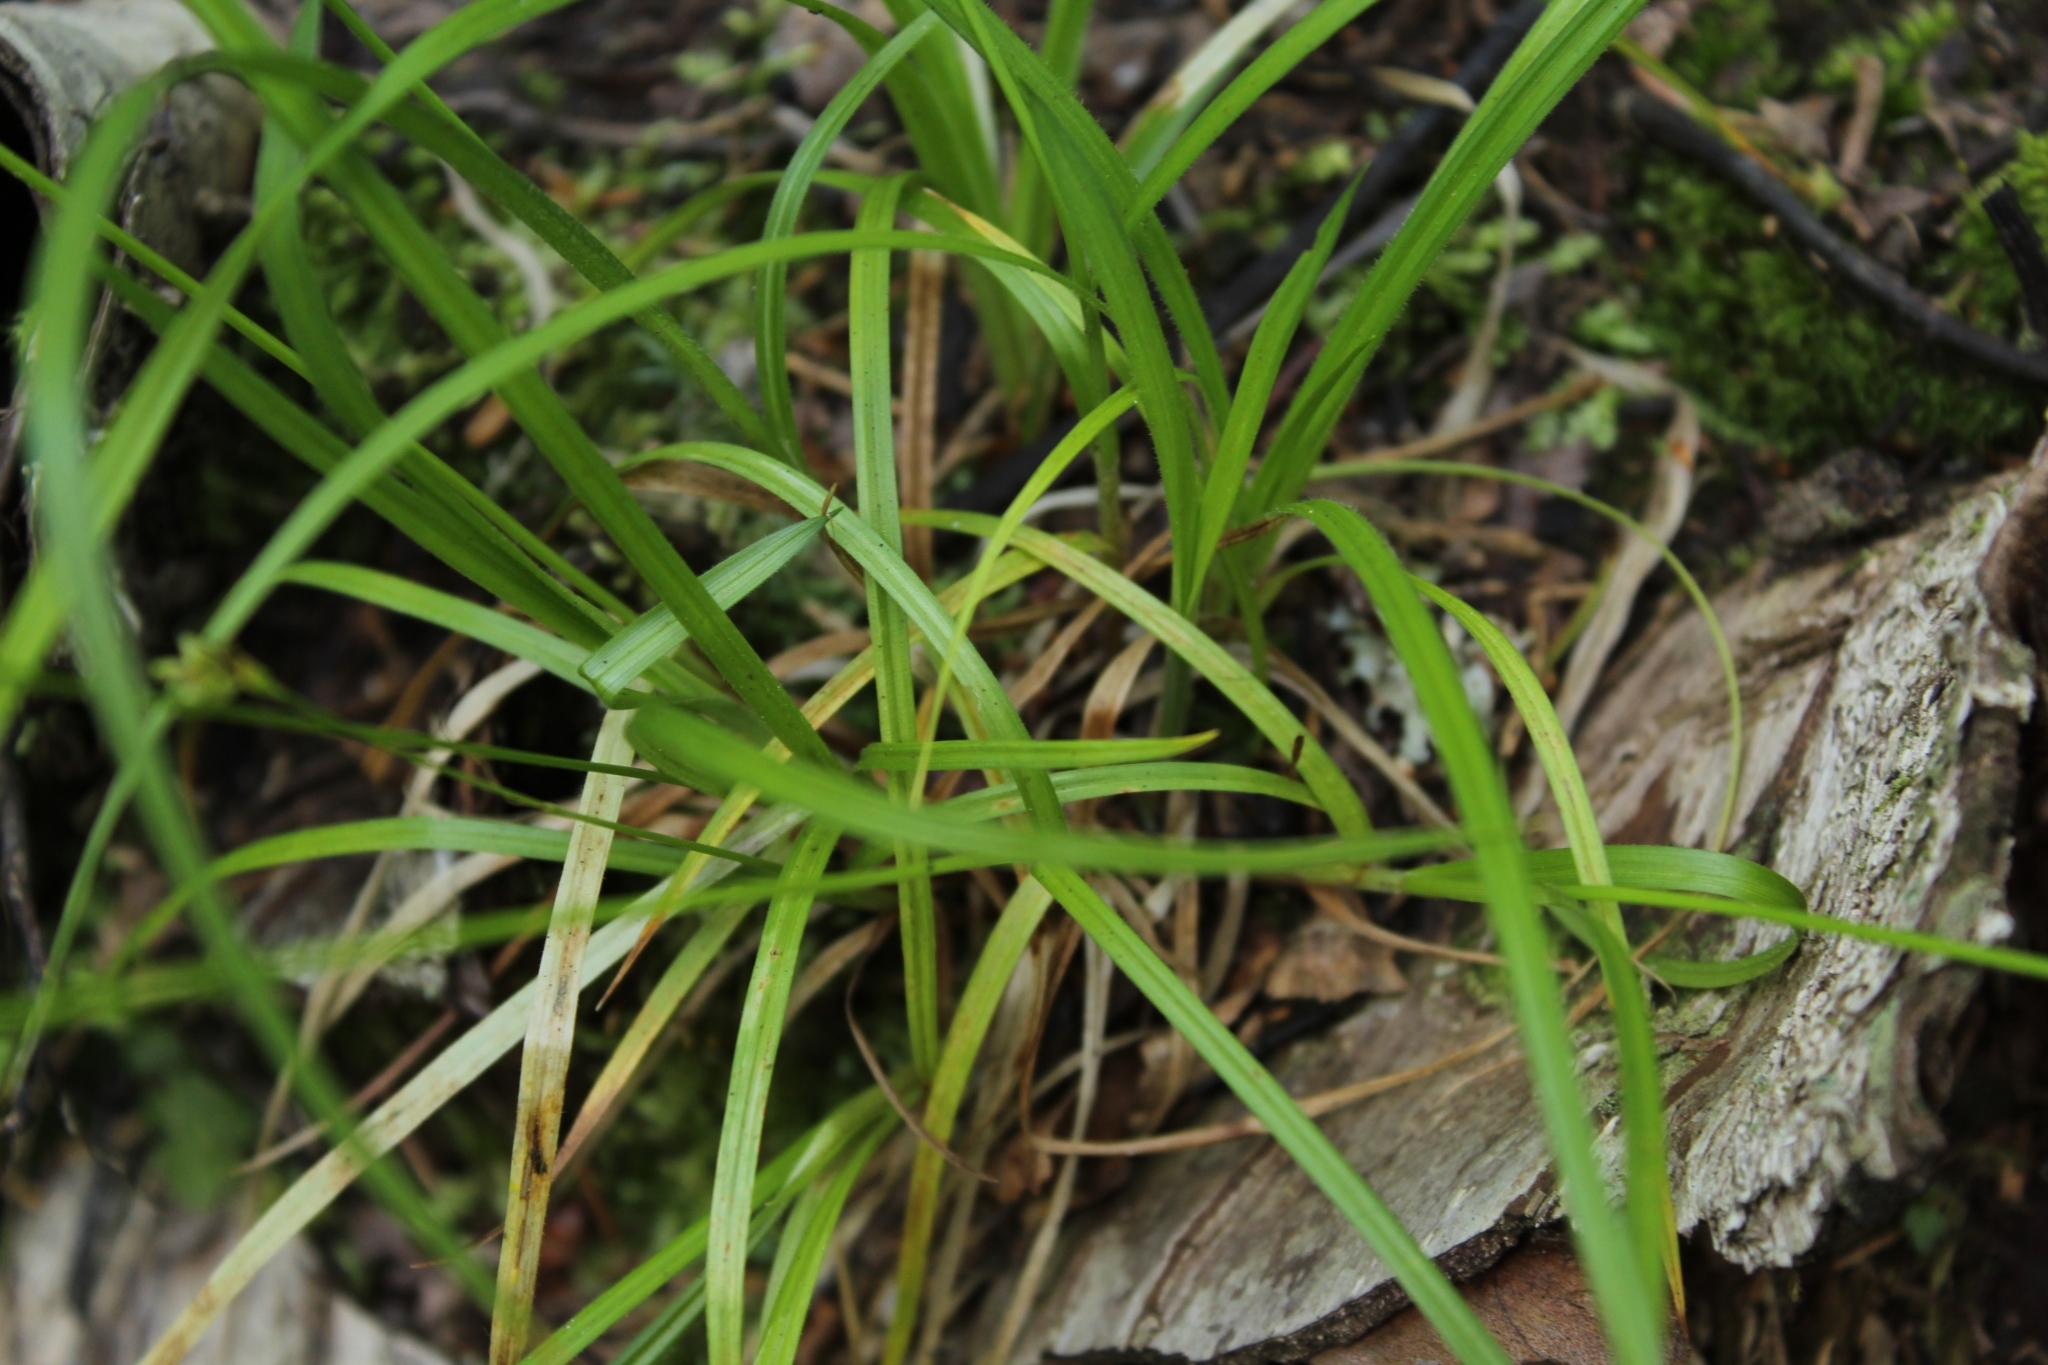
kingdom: Plantae
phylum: Tracheophyta
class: Liliopsida
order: Poales
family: Cyperaceae
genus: Carex
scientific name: Carex pallescens
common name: Pale sedge
